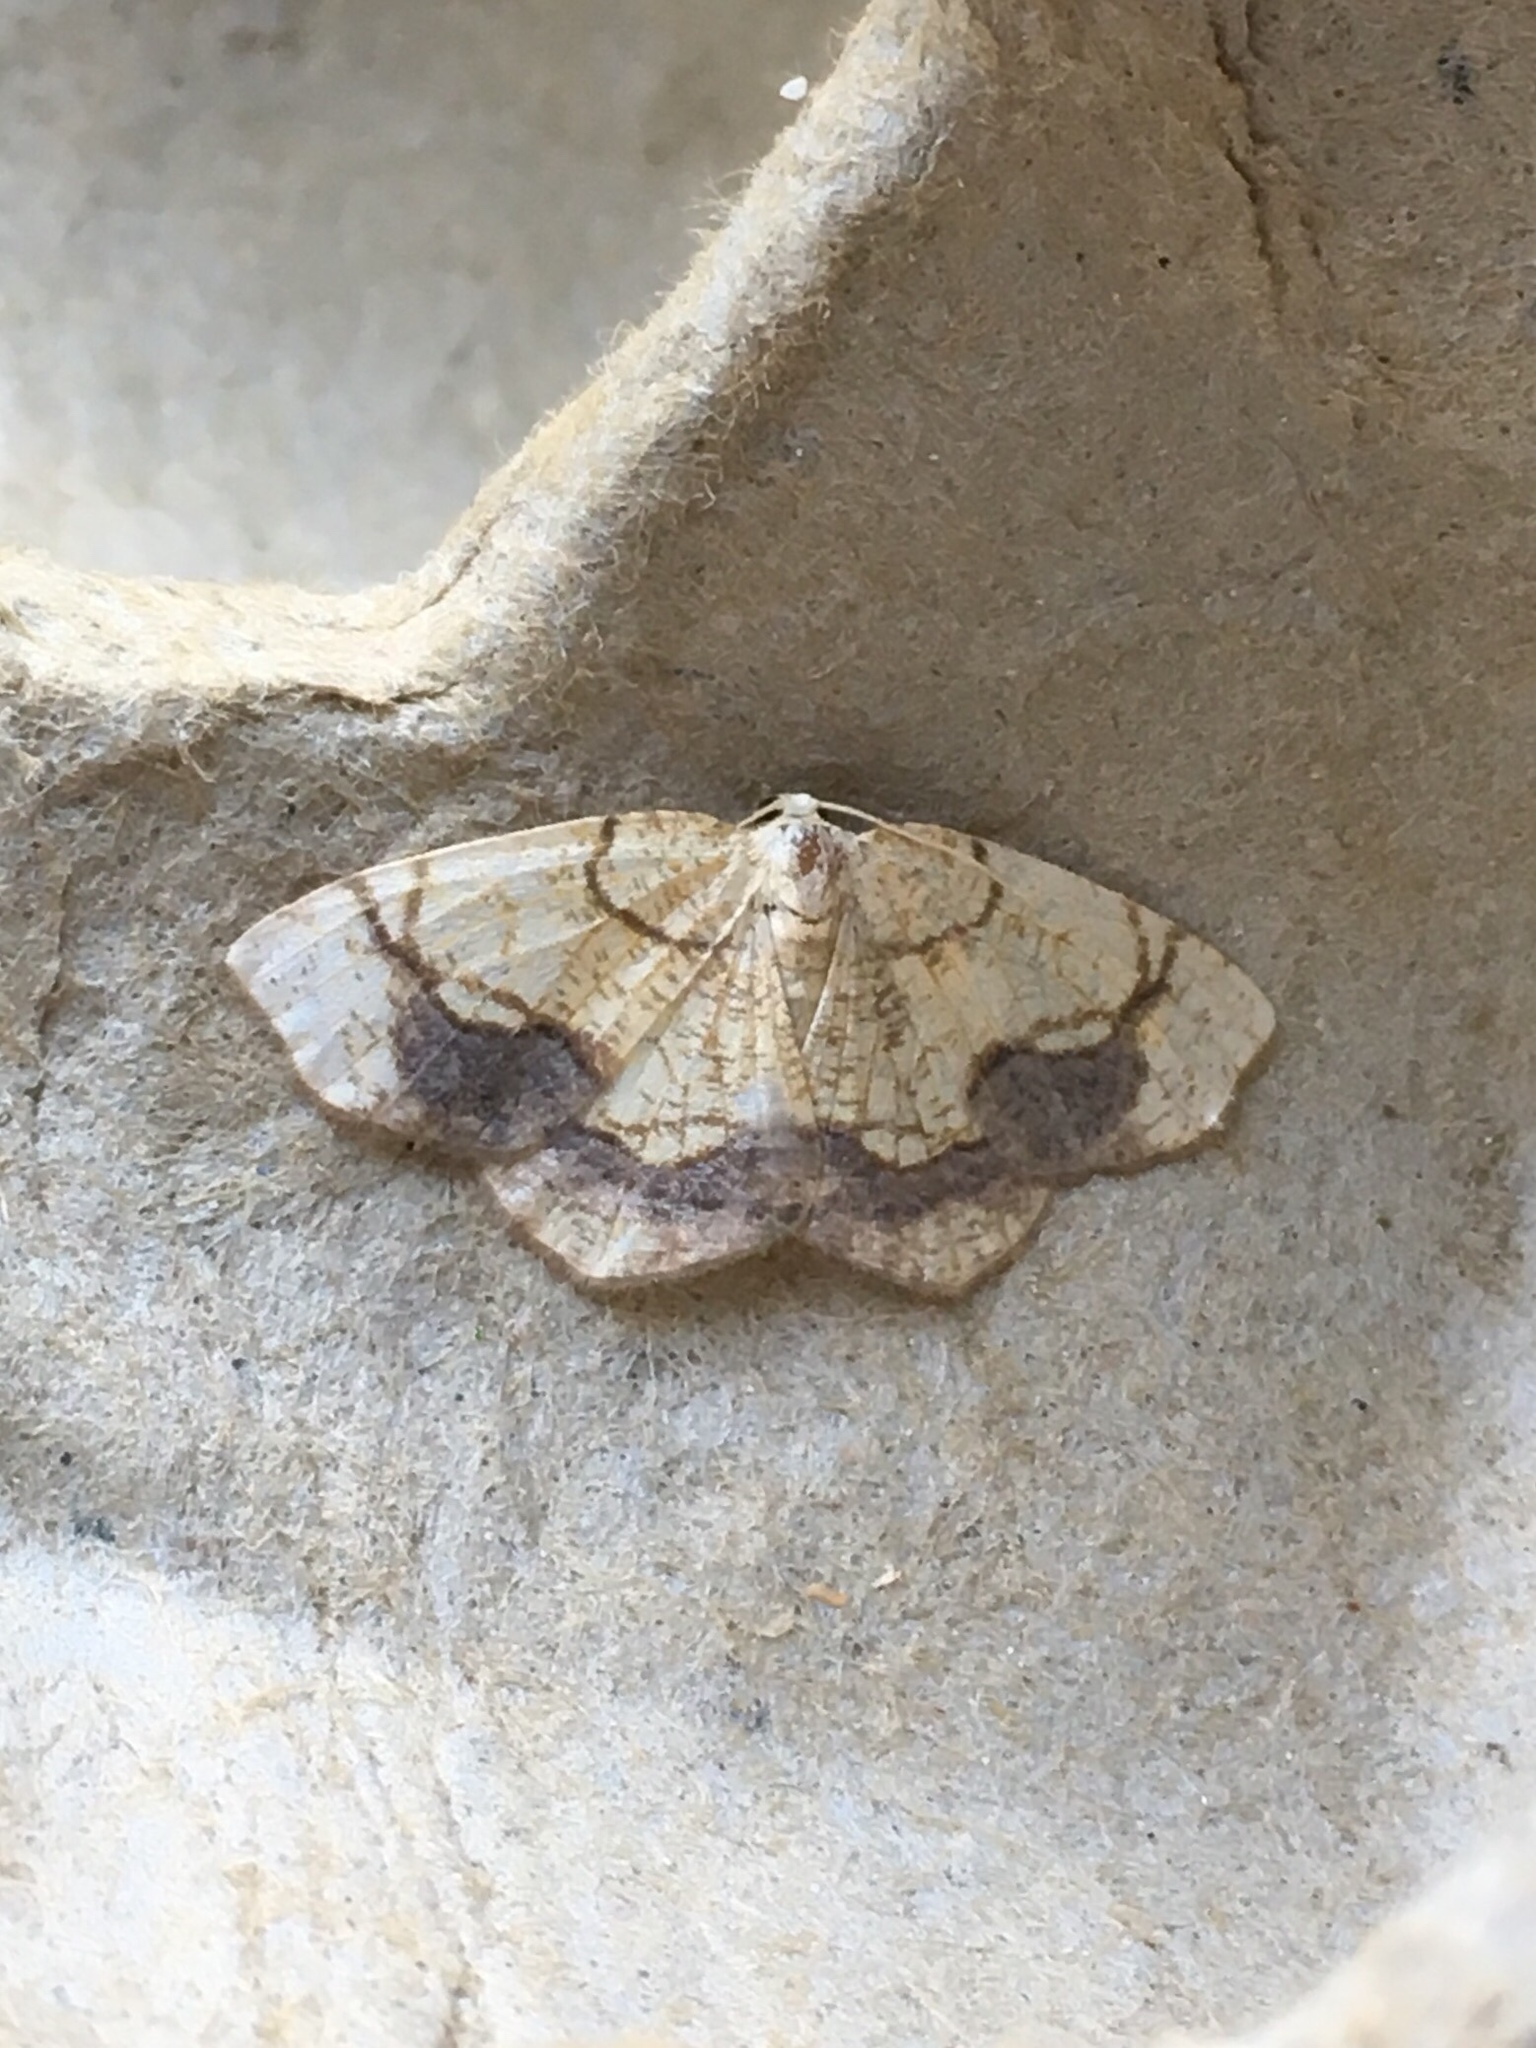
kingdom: Animalia
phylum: Arthropoda
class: Insecta
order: Lepidoptera
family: Geometridae
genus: Nematocampa
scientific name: Nematocampa resistaria
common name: Horned spanworm moth
